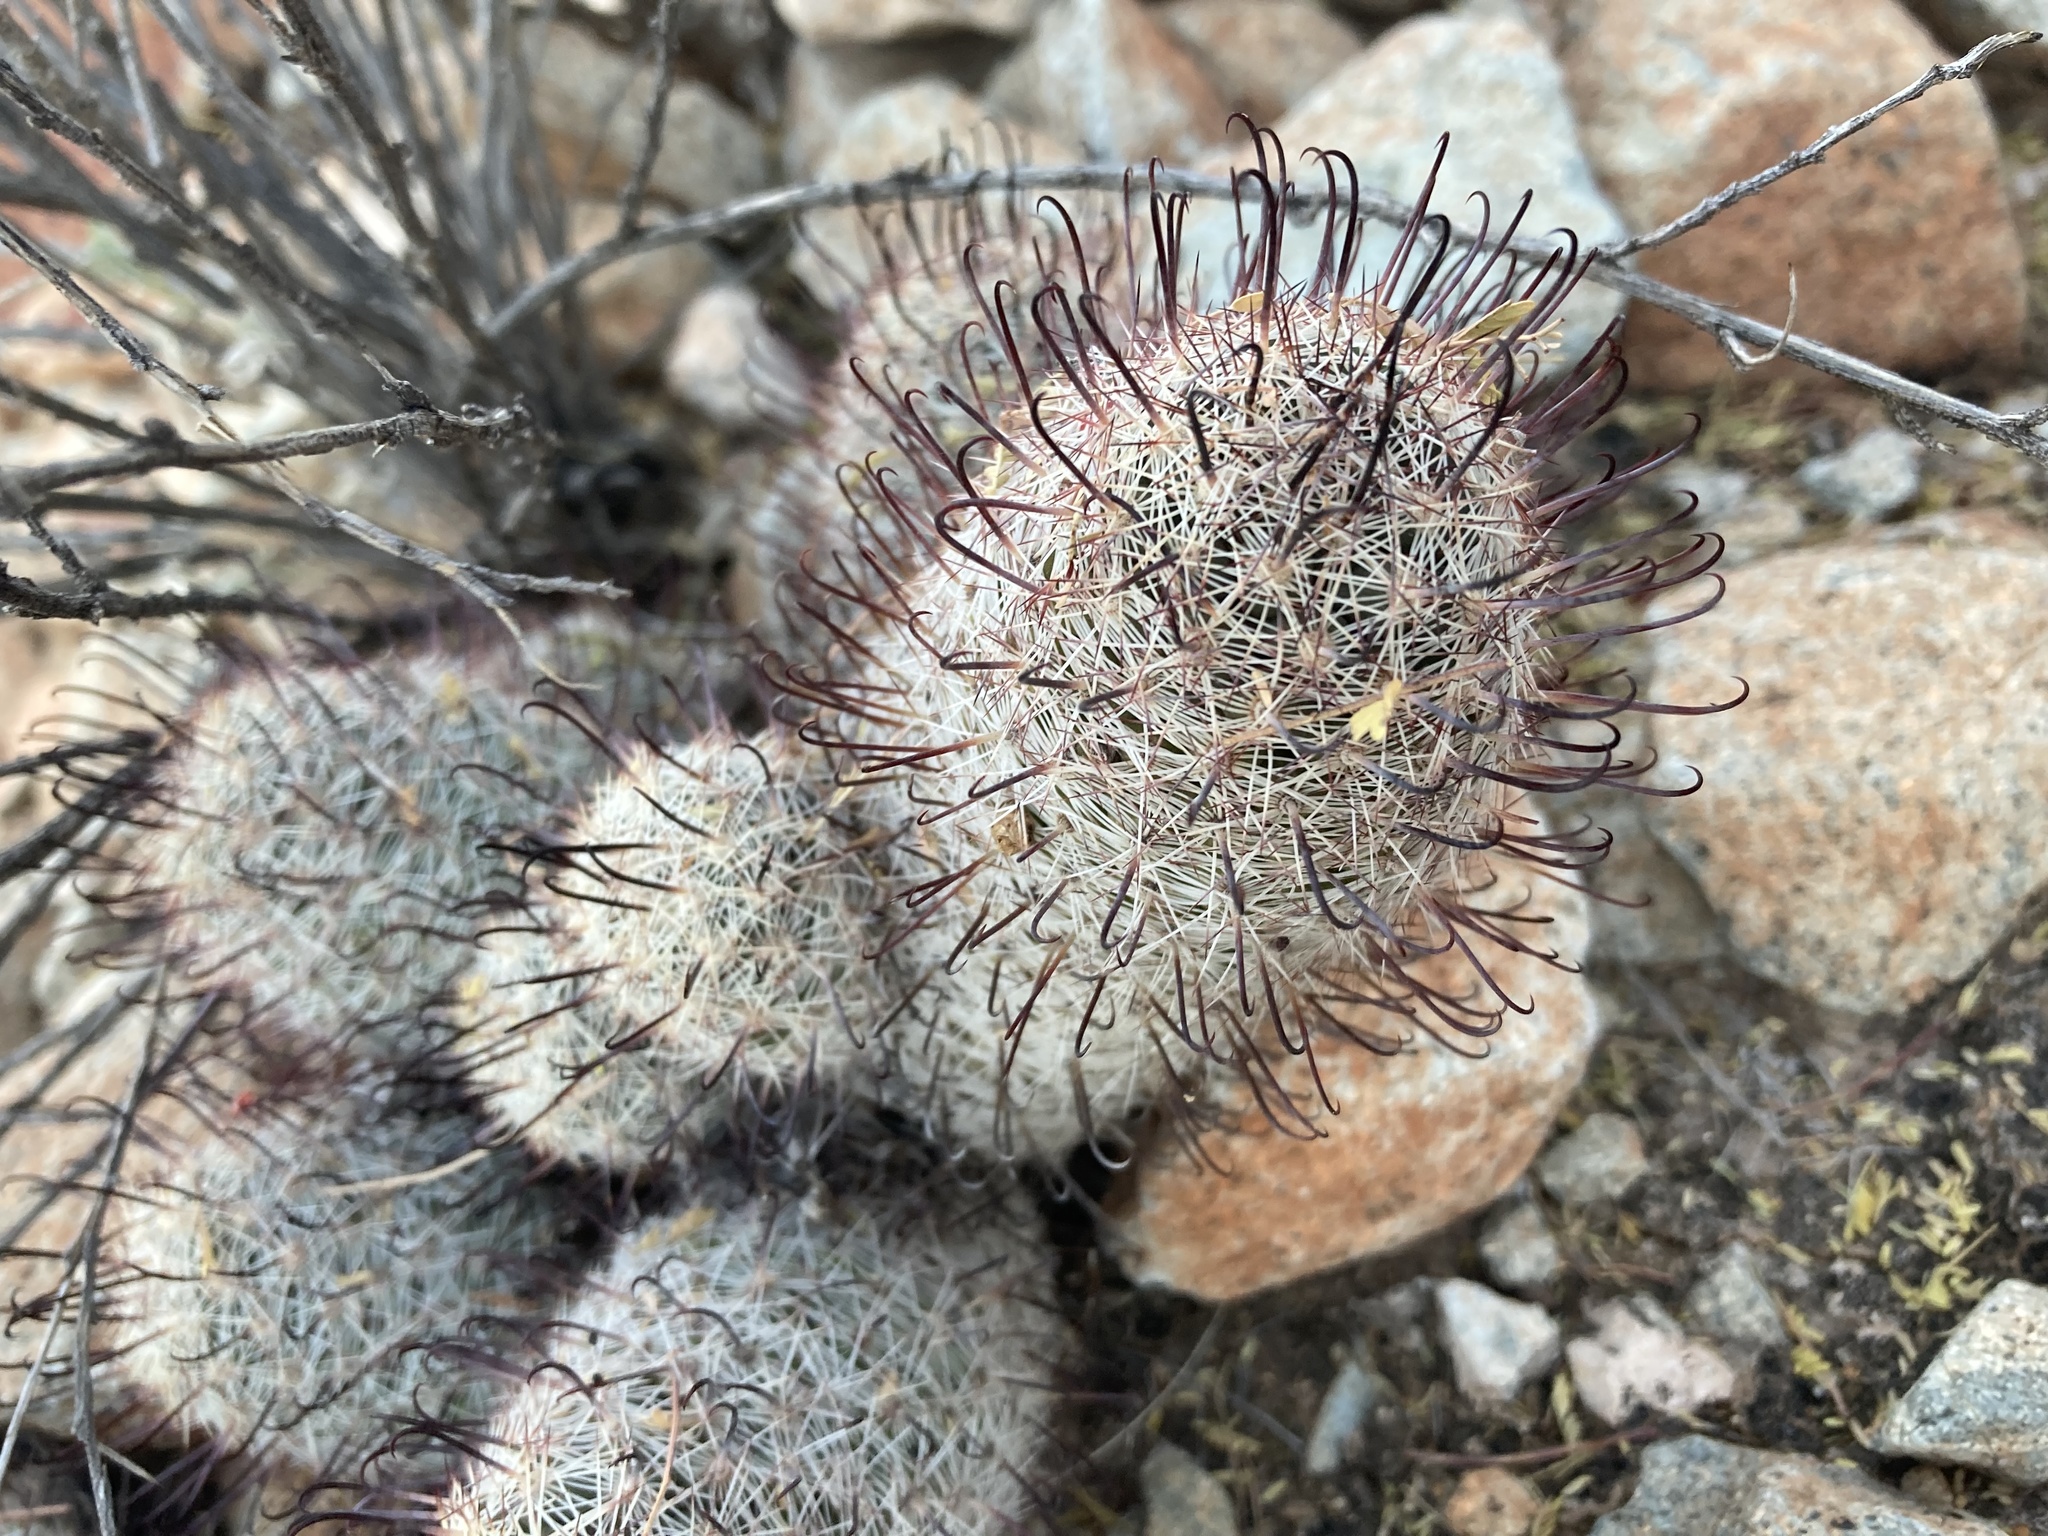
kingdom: Plantae
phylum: Tracheophyta
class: Magnoliopsida
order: Caryophyllales
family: Cactaceae
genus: Cochemiea
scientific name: Cochemiea grahamii
